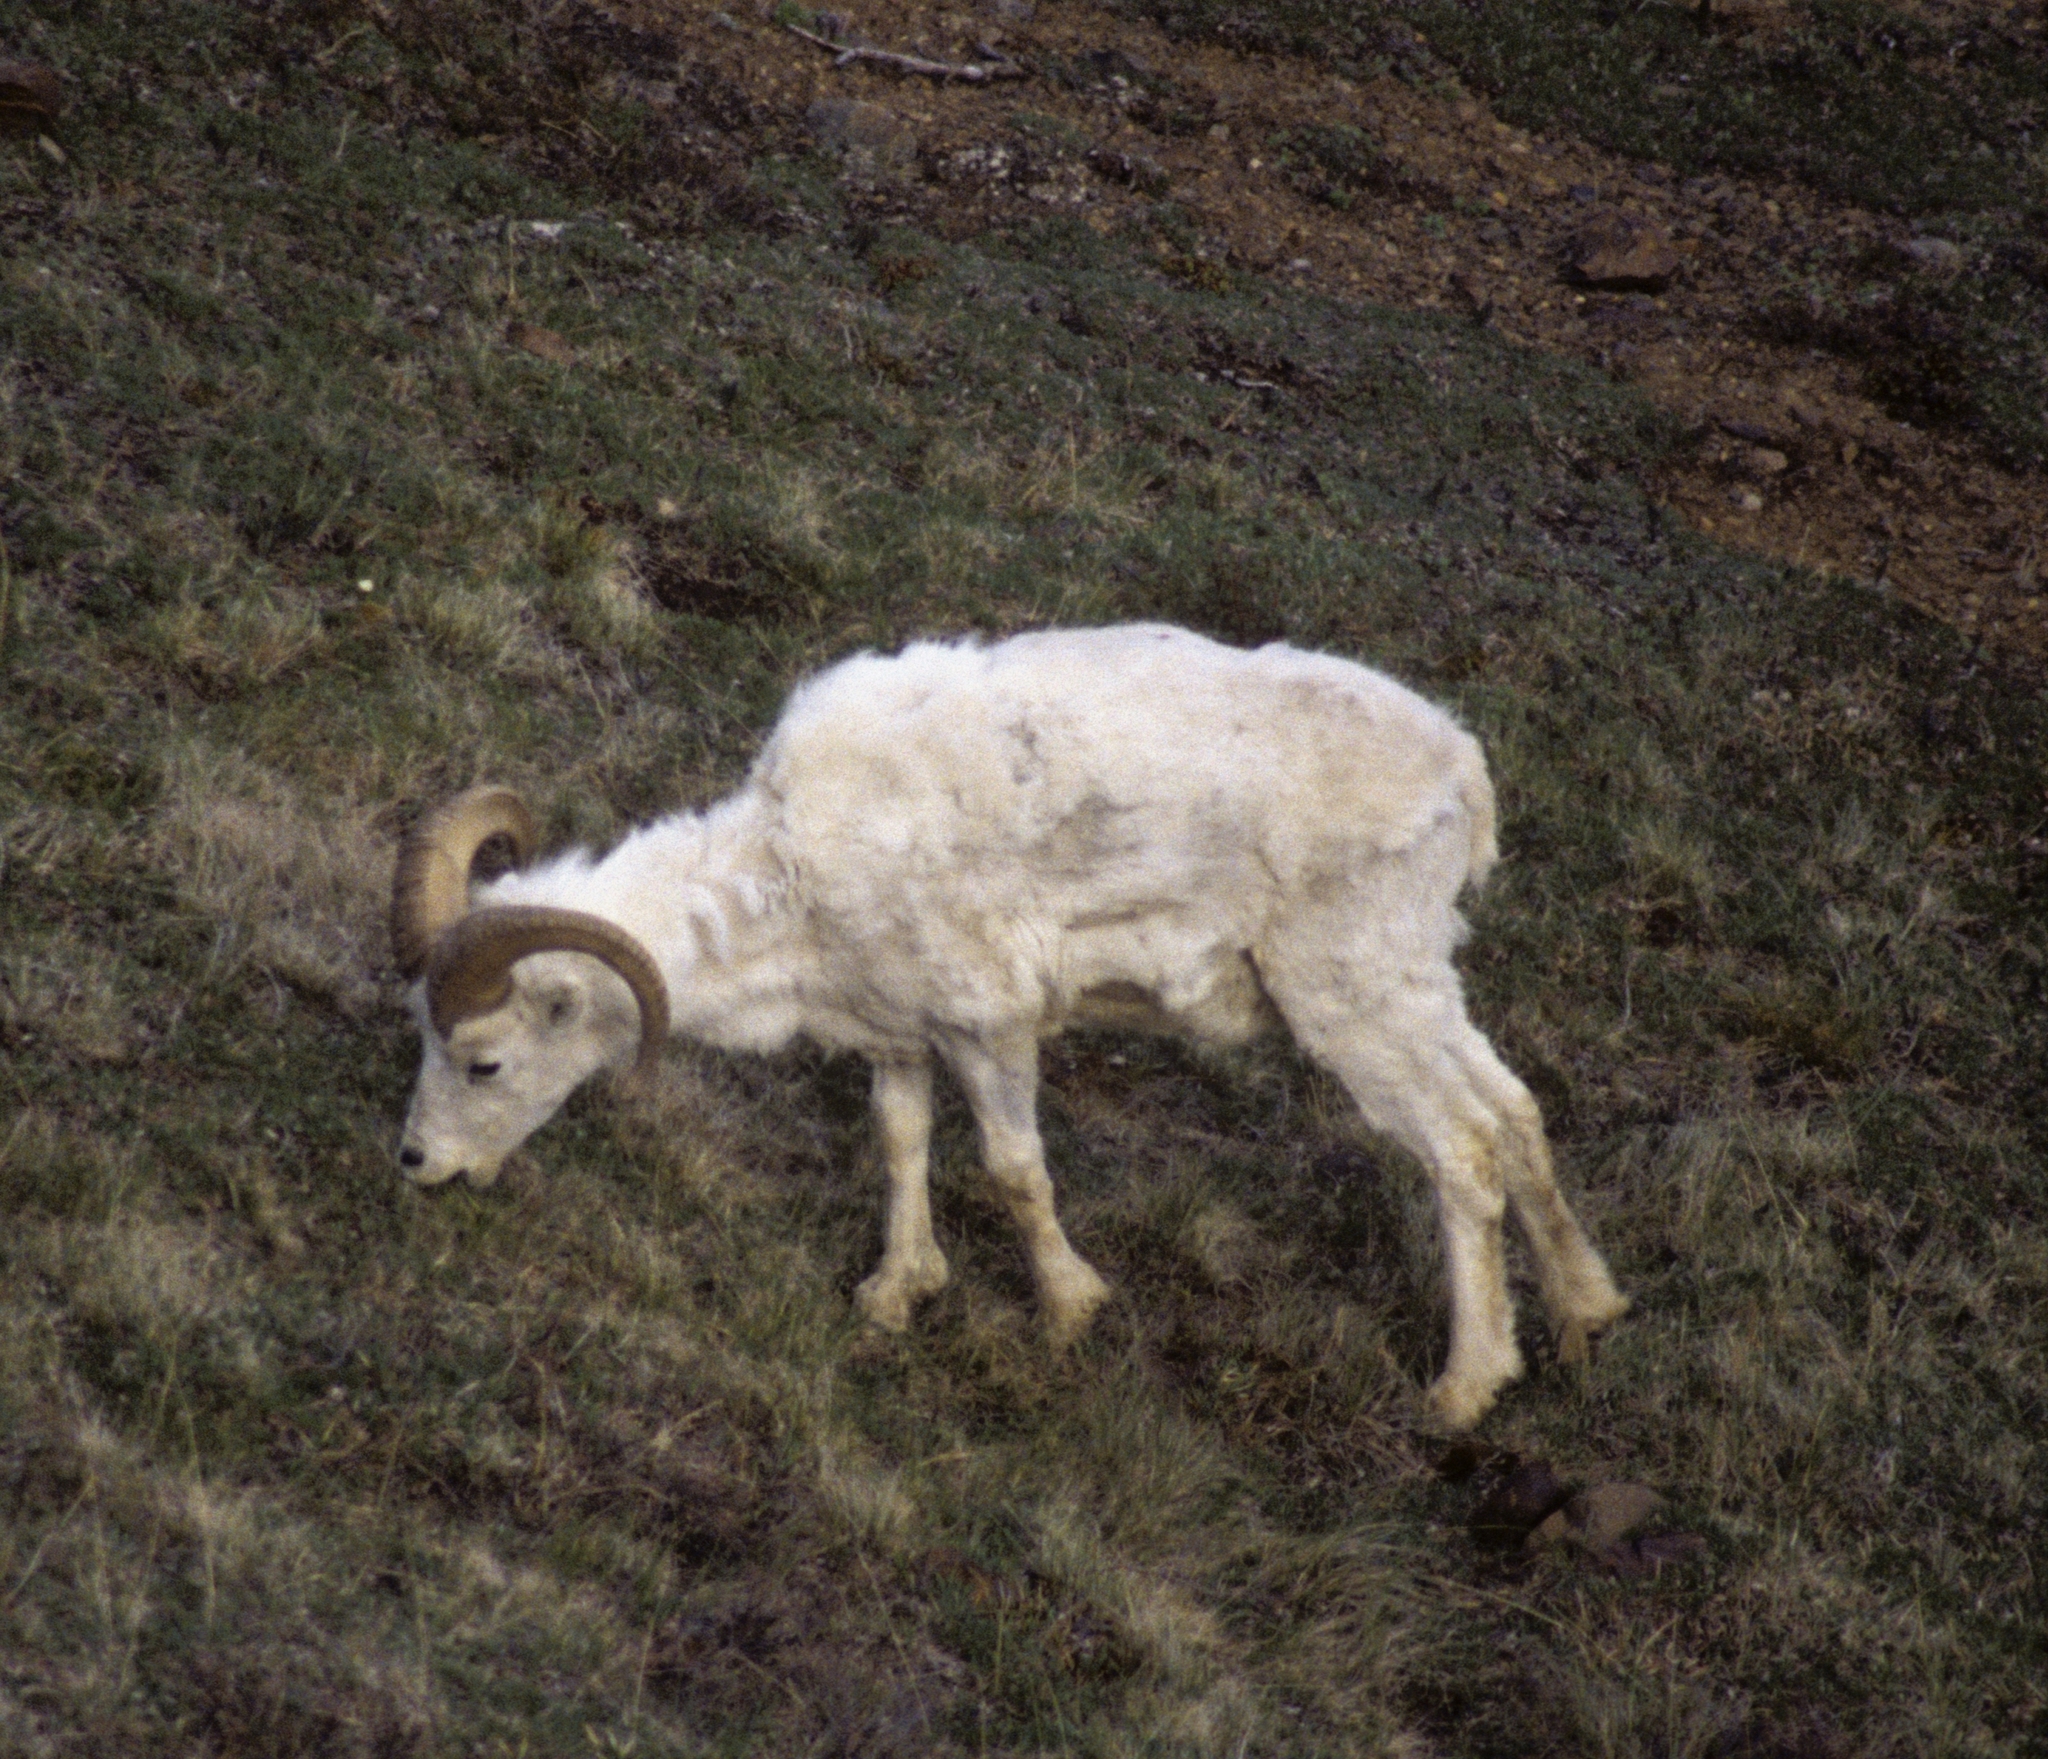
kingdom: Animalia
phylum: Chordata
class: Mammalia
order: Artiodactyla
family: Bovidae
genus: Ovis
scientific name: Ovis dalli
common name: Dall's sheep
